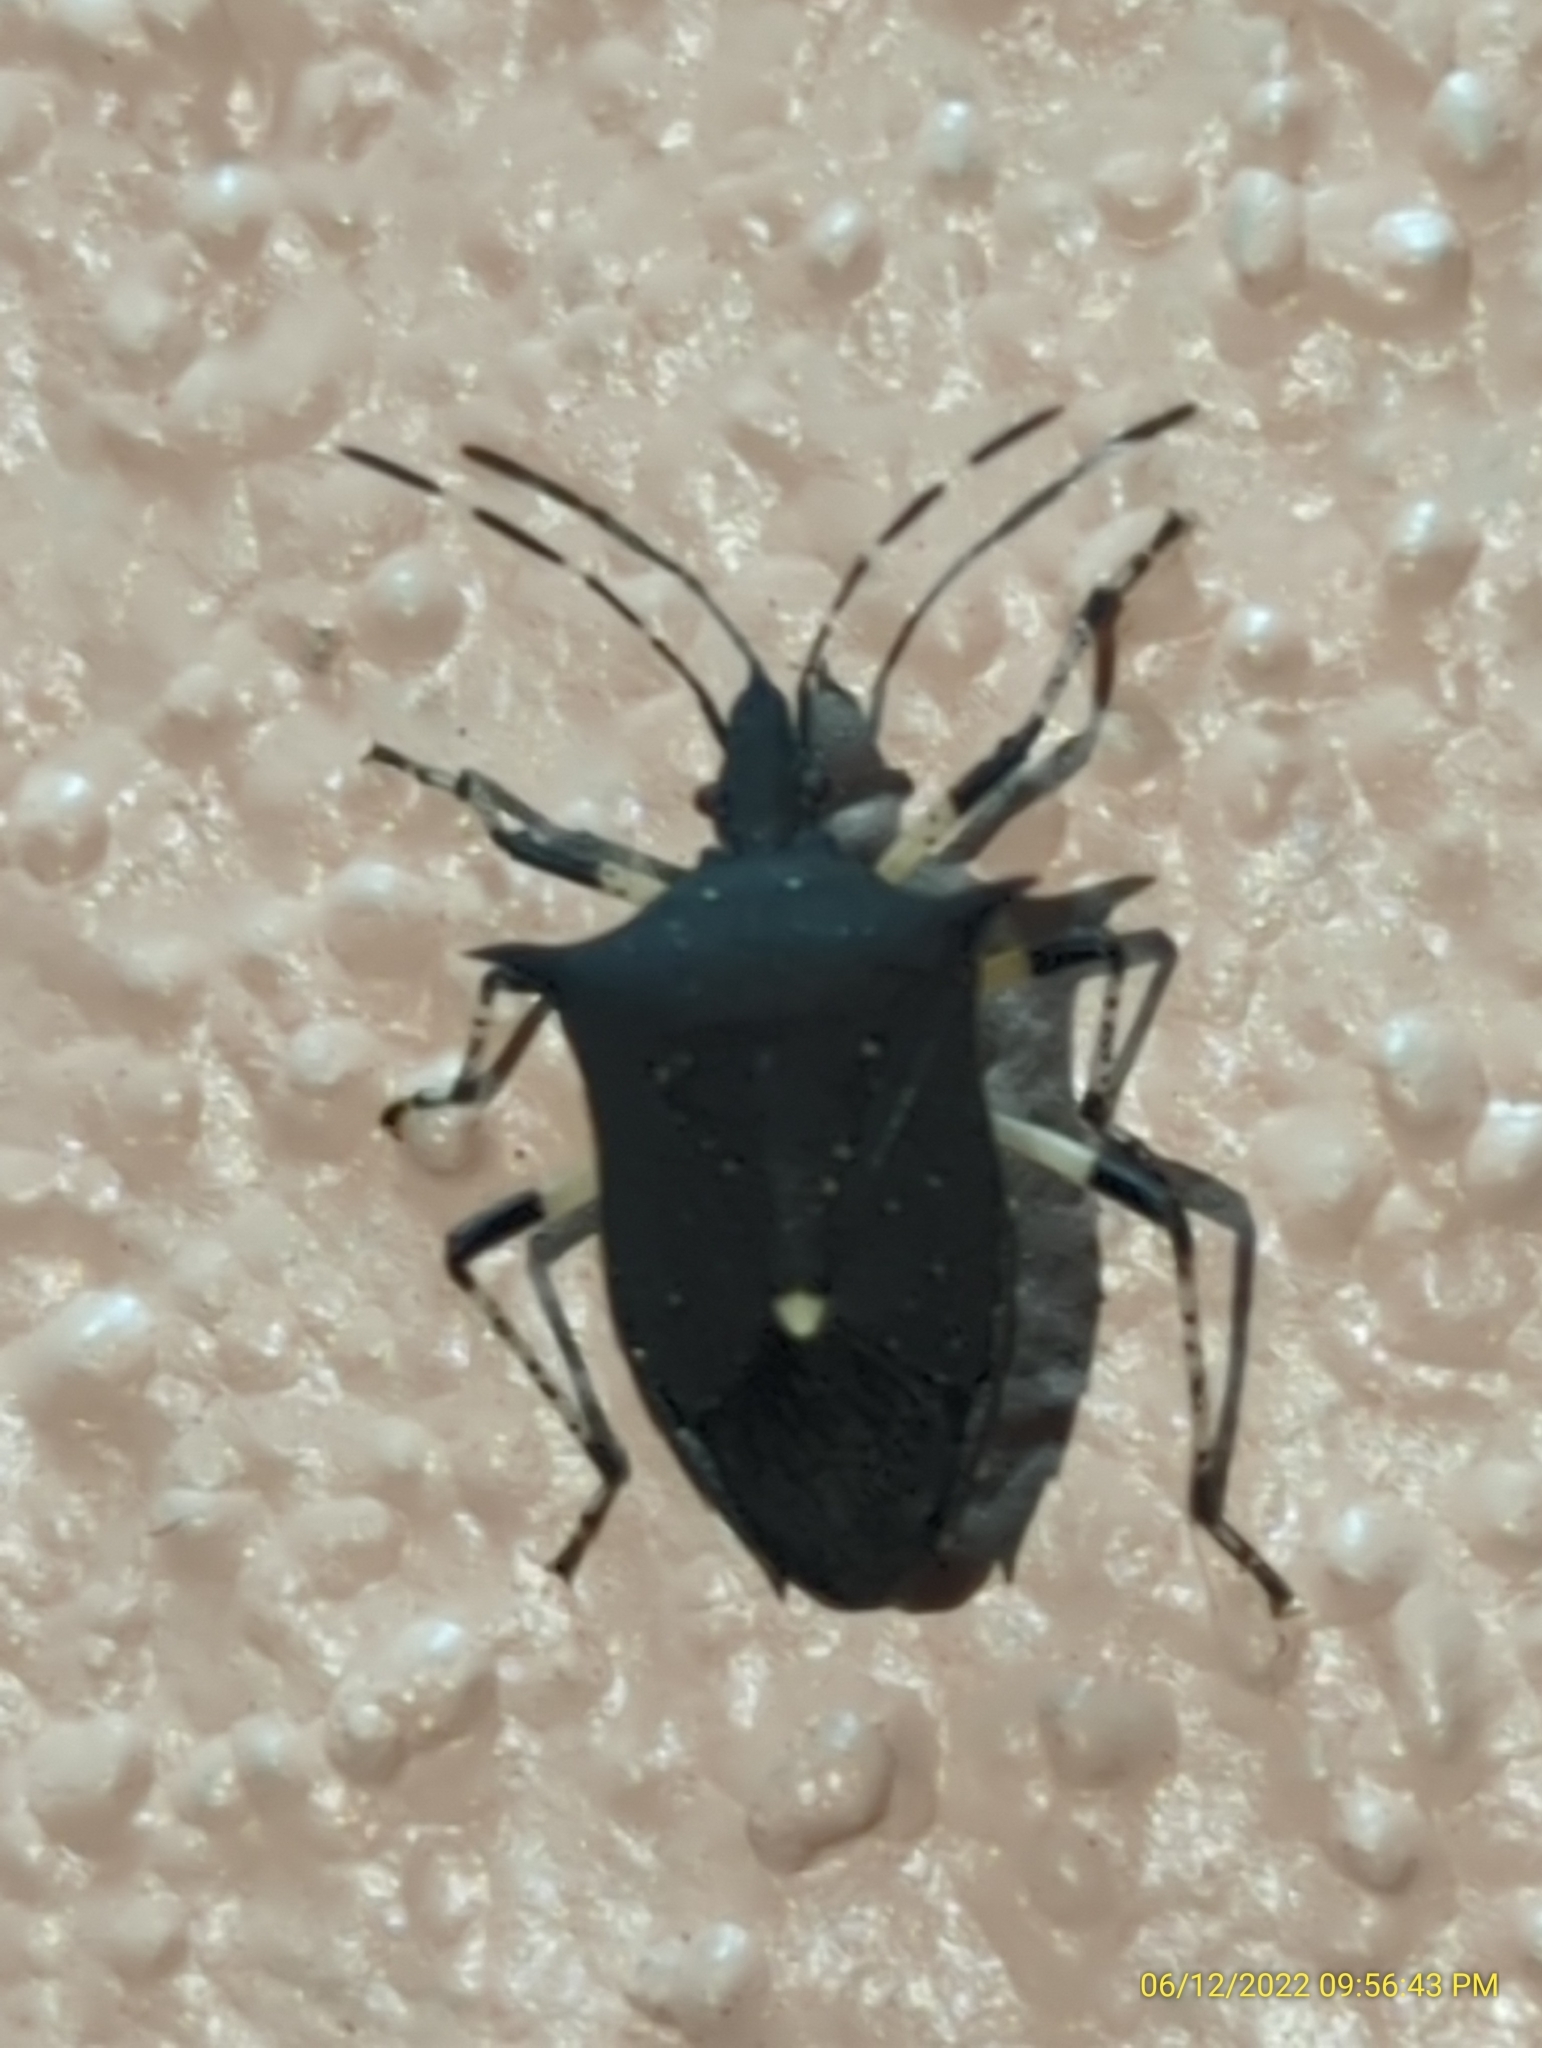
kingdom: Animalia
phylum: Arthropoda
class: Insecta
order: Hemiptera
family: Pentatomidae
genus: Proxys
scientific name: Proxys punctulatus
